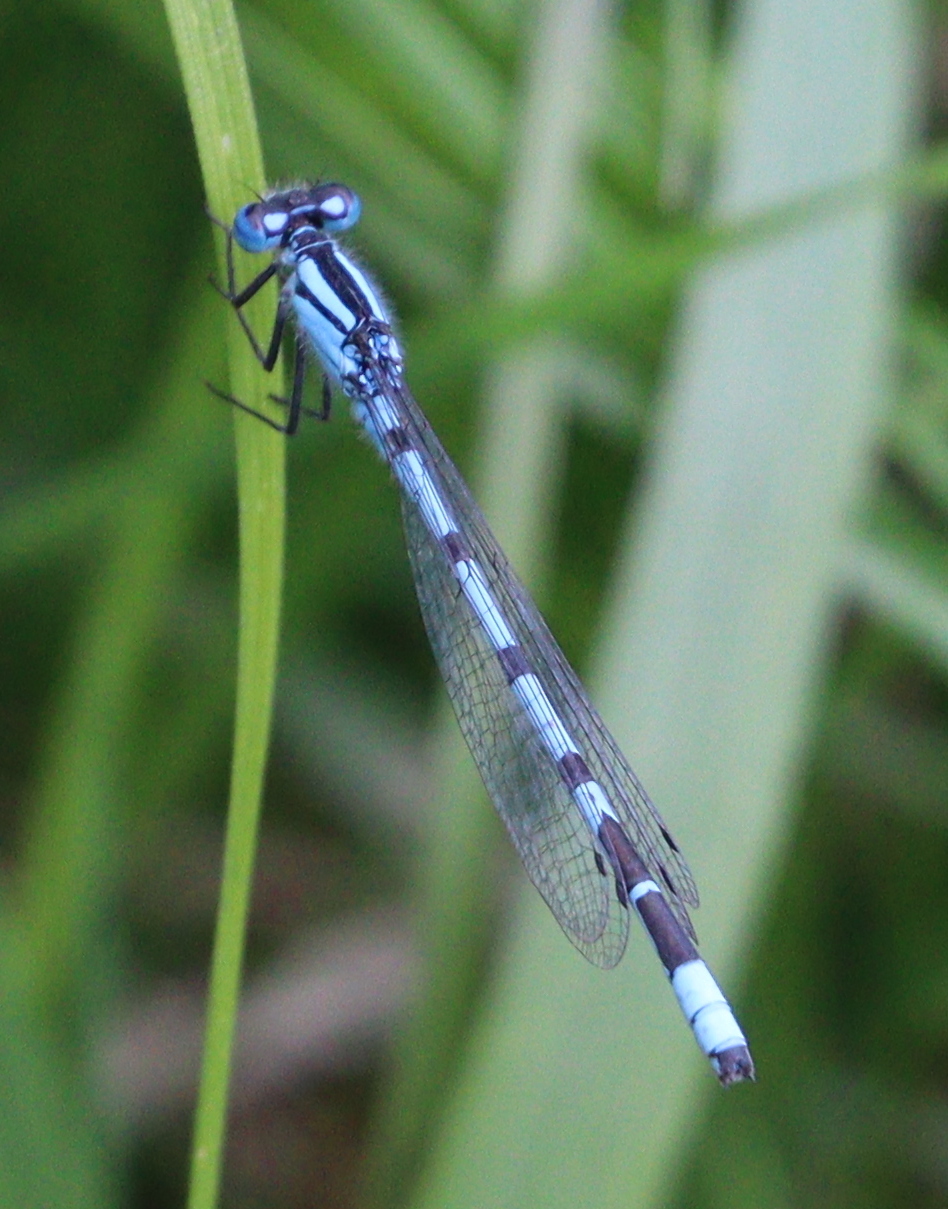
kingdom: Animalia
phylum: Arthropoda
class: Insecta
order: Odonata
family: Coenagrionidae
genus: Enallagma
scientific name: Enallagma cyathigerum
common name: Common blue damselfly
